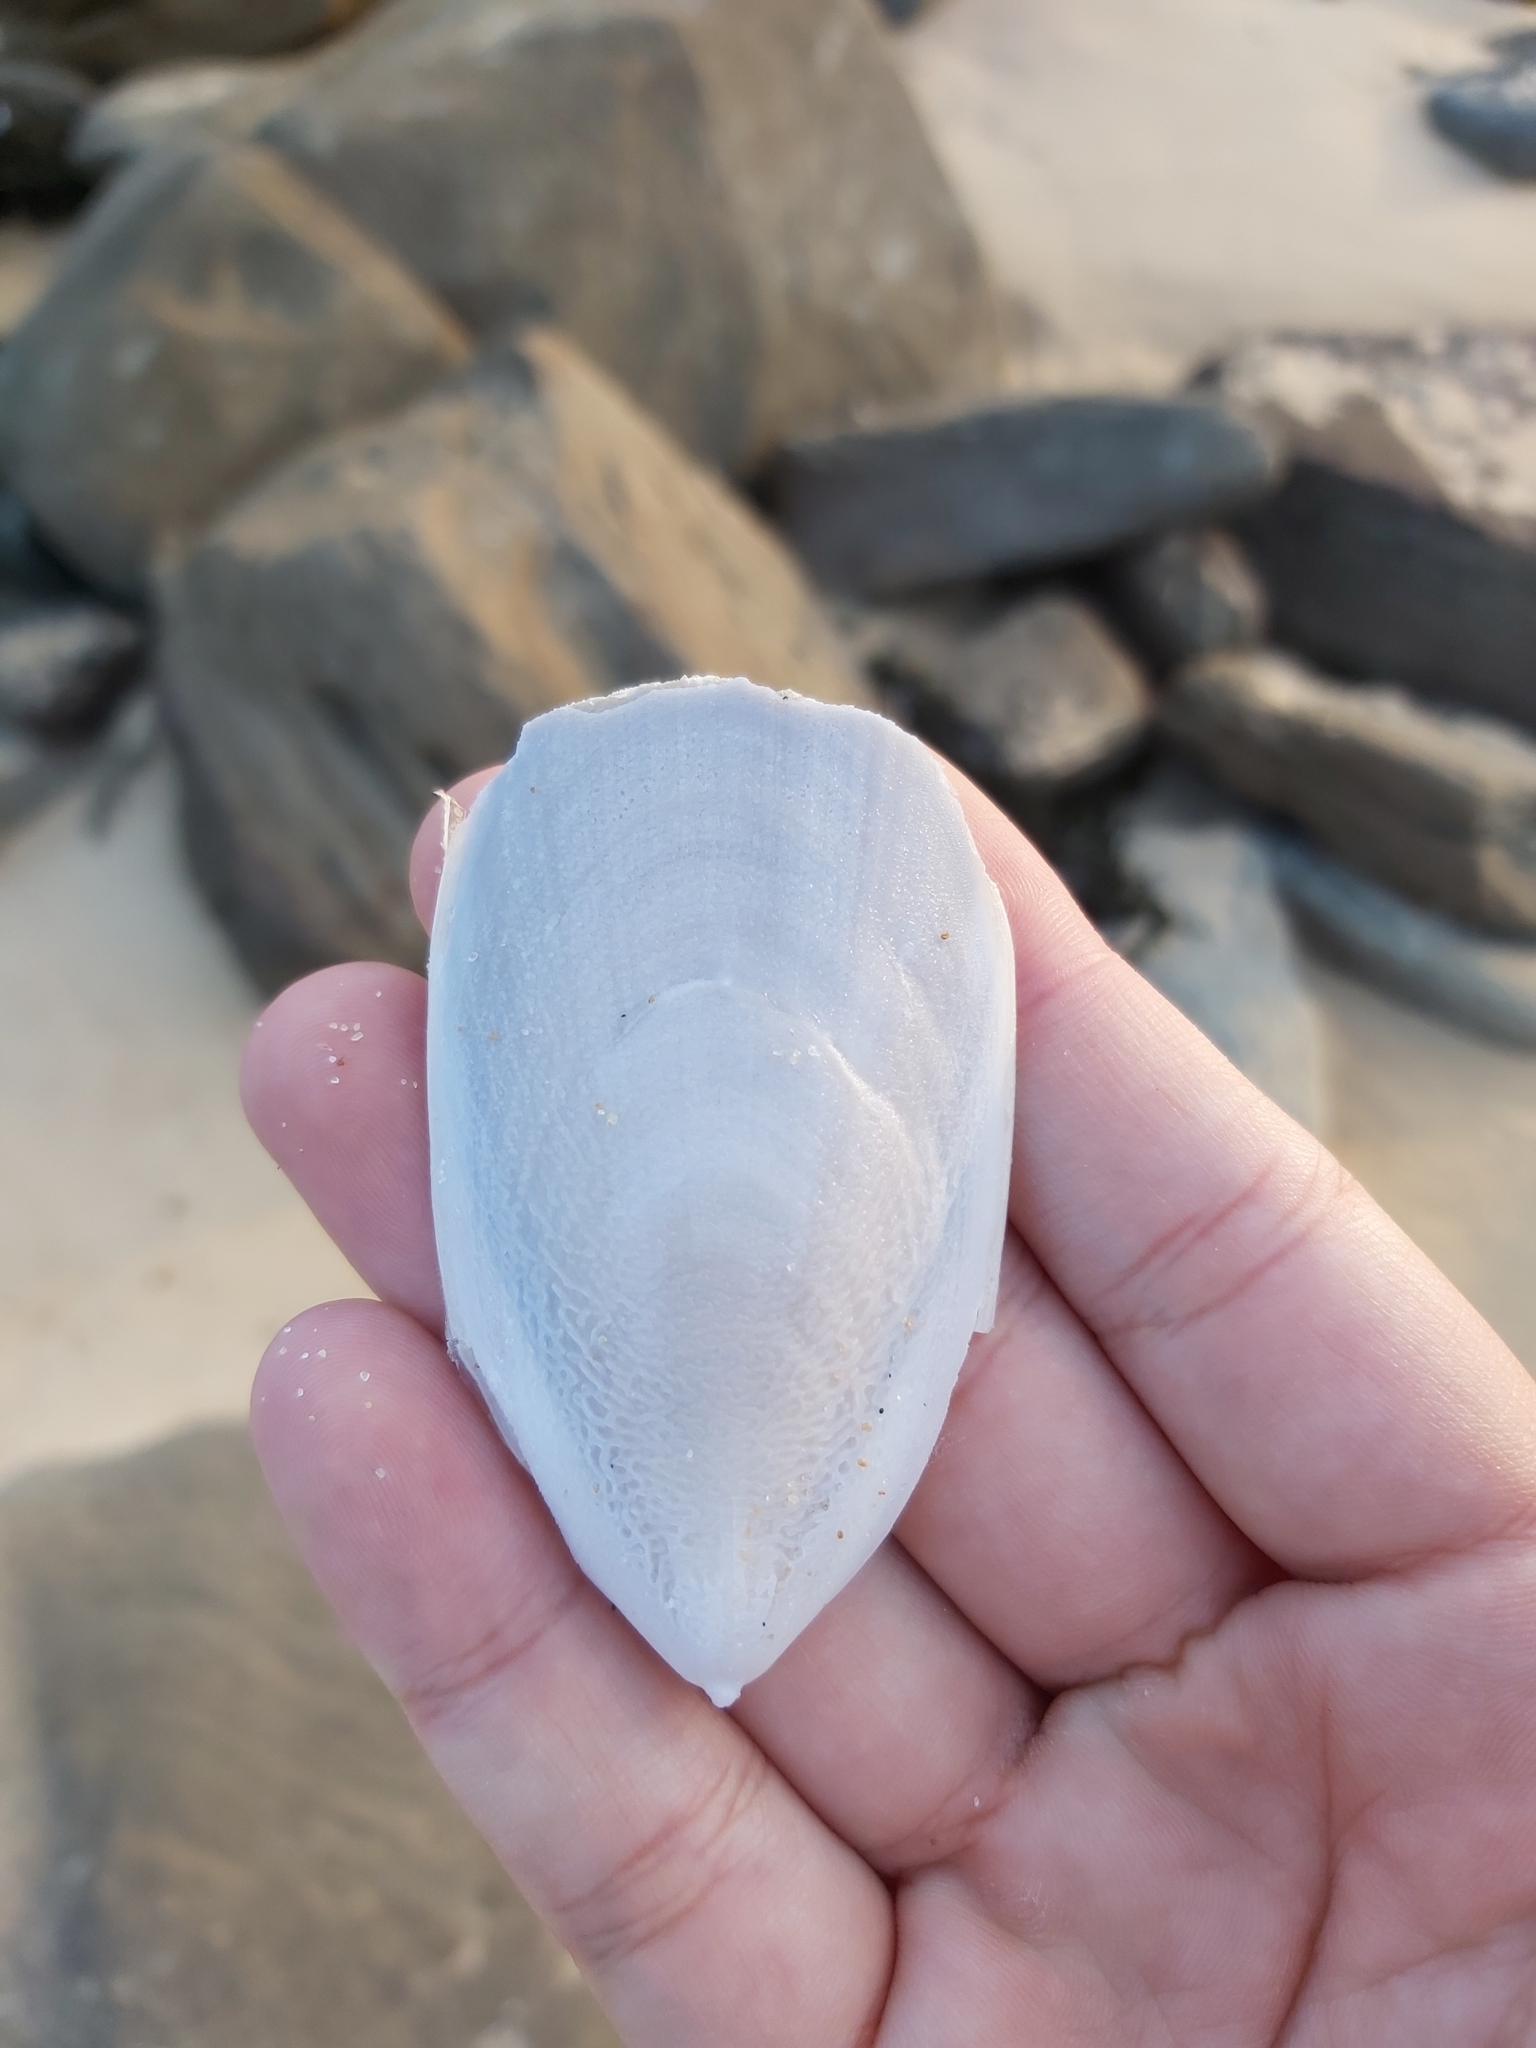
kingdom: Animalia
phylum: Mollusca
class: Cephalopoda
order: Sepiida
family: Sepiidae
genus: Ascarosepion
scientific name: Ascarosepion mestus
